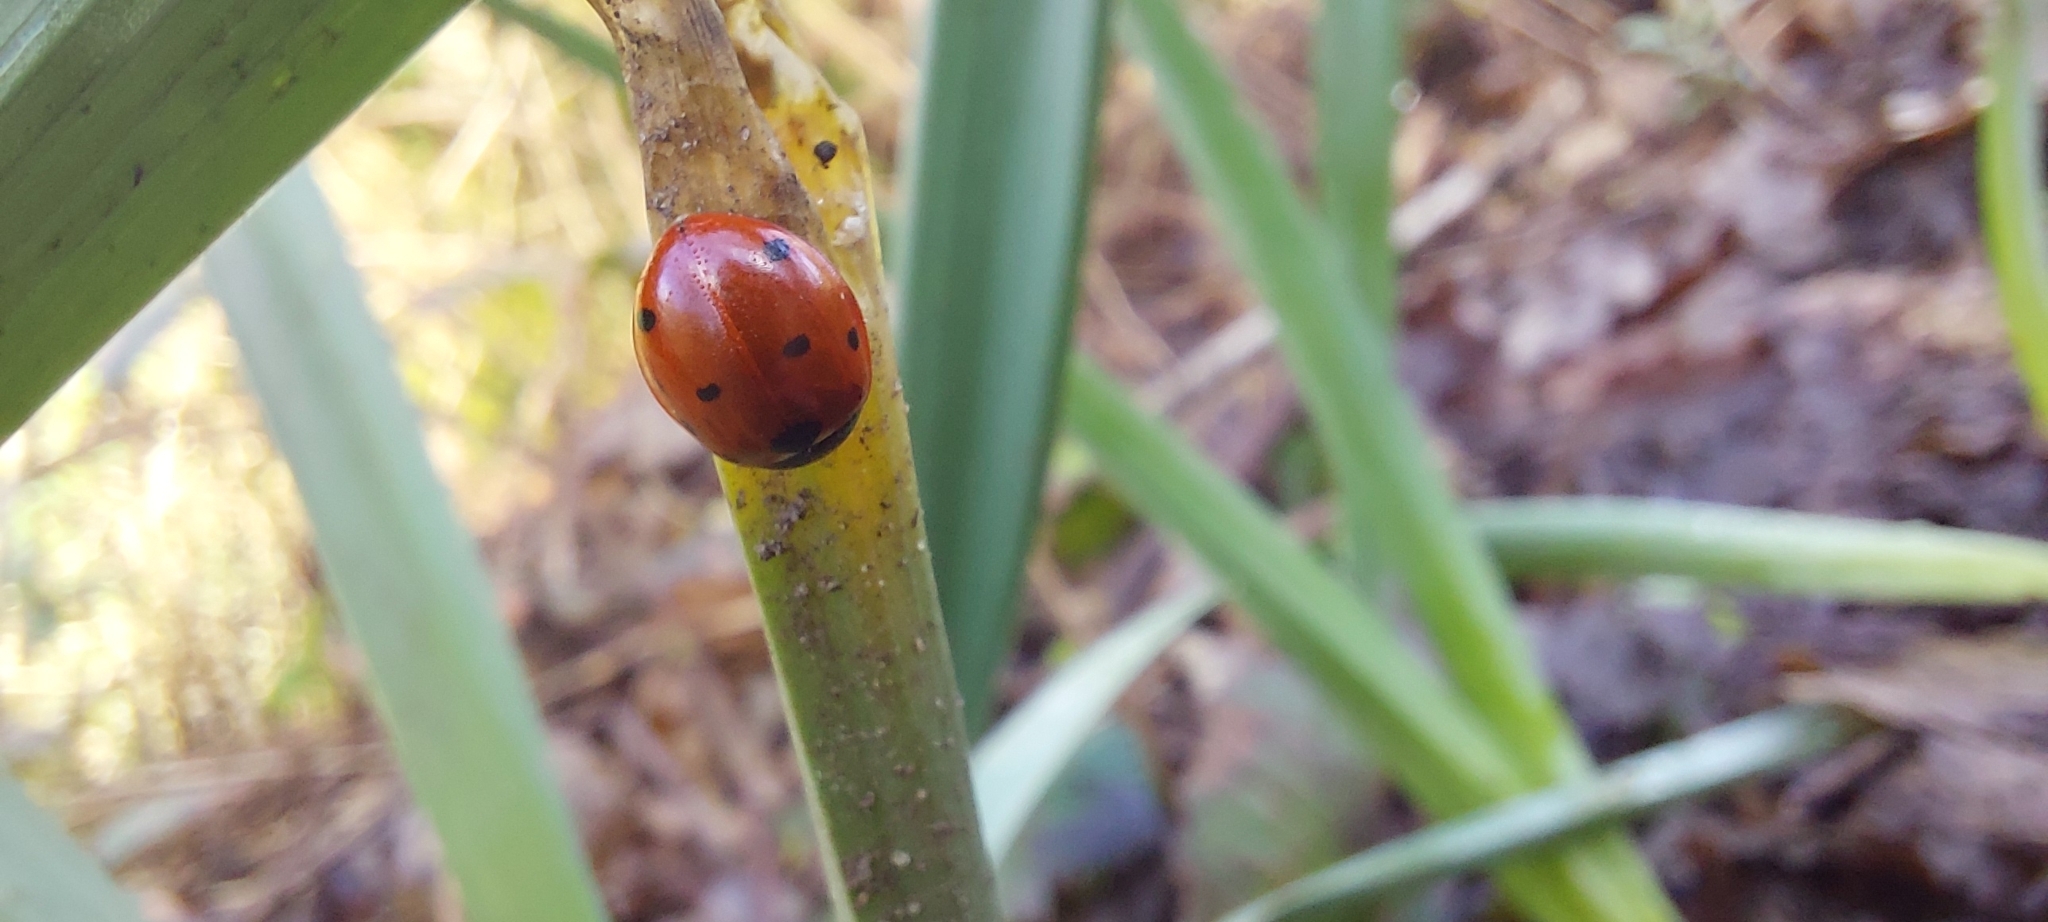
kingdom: Animalia
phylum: Arthropoda
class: Insecta
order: Coleoptera
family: Coccinellidae
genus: Coccinella
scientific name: Coccinella septempunctata
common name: Sevenspotted lady beetle
